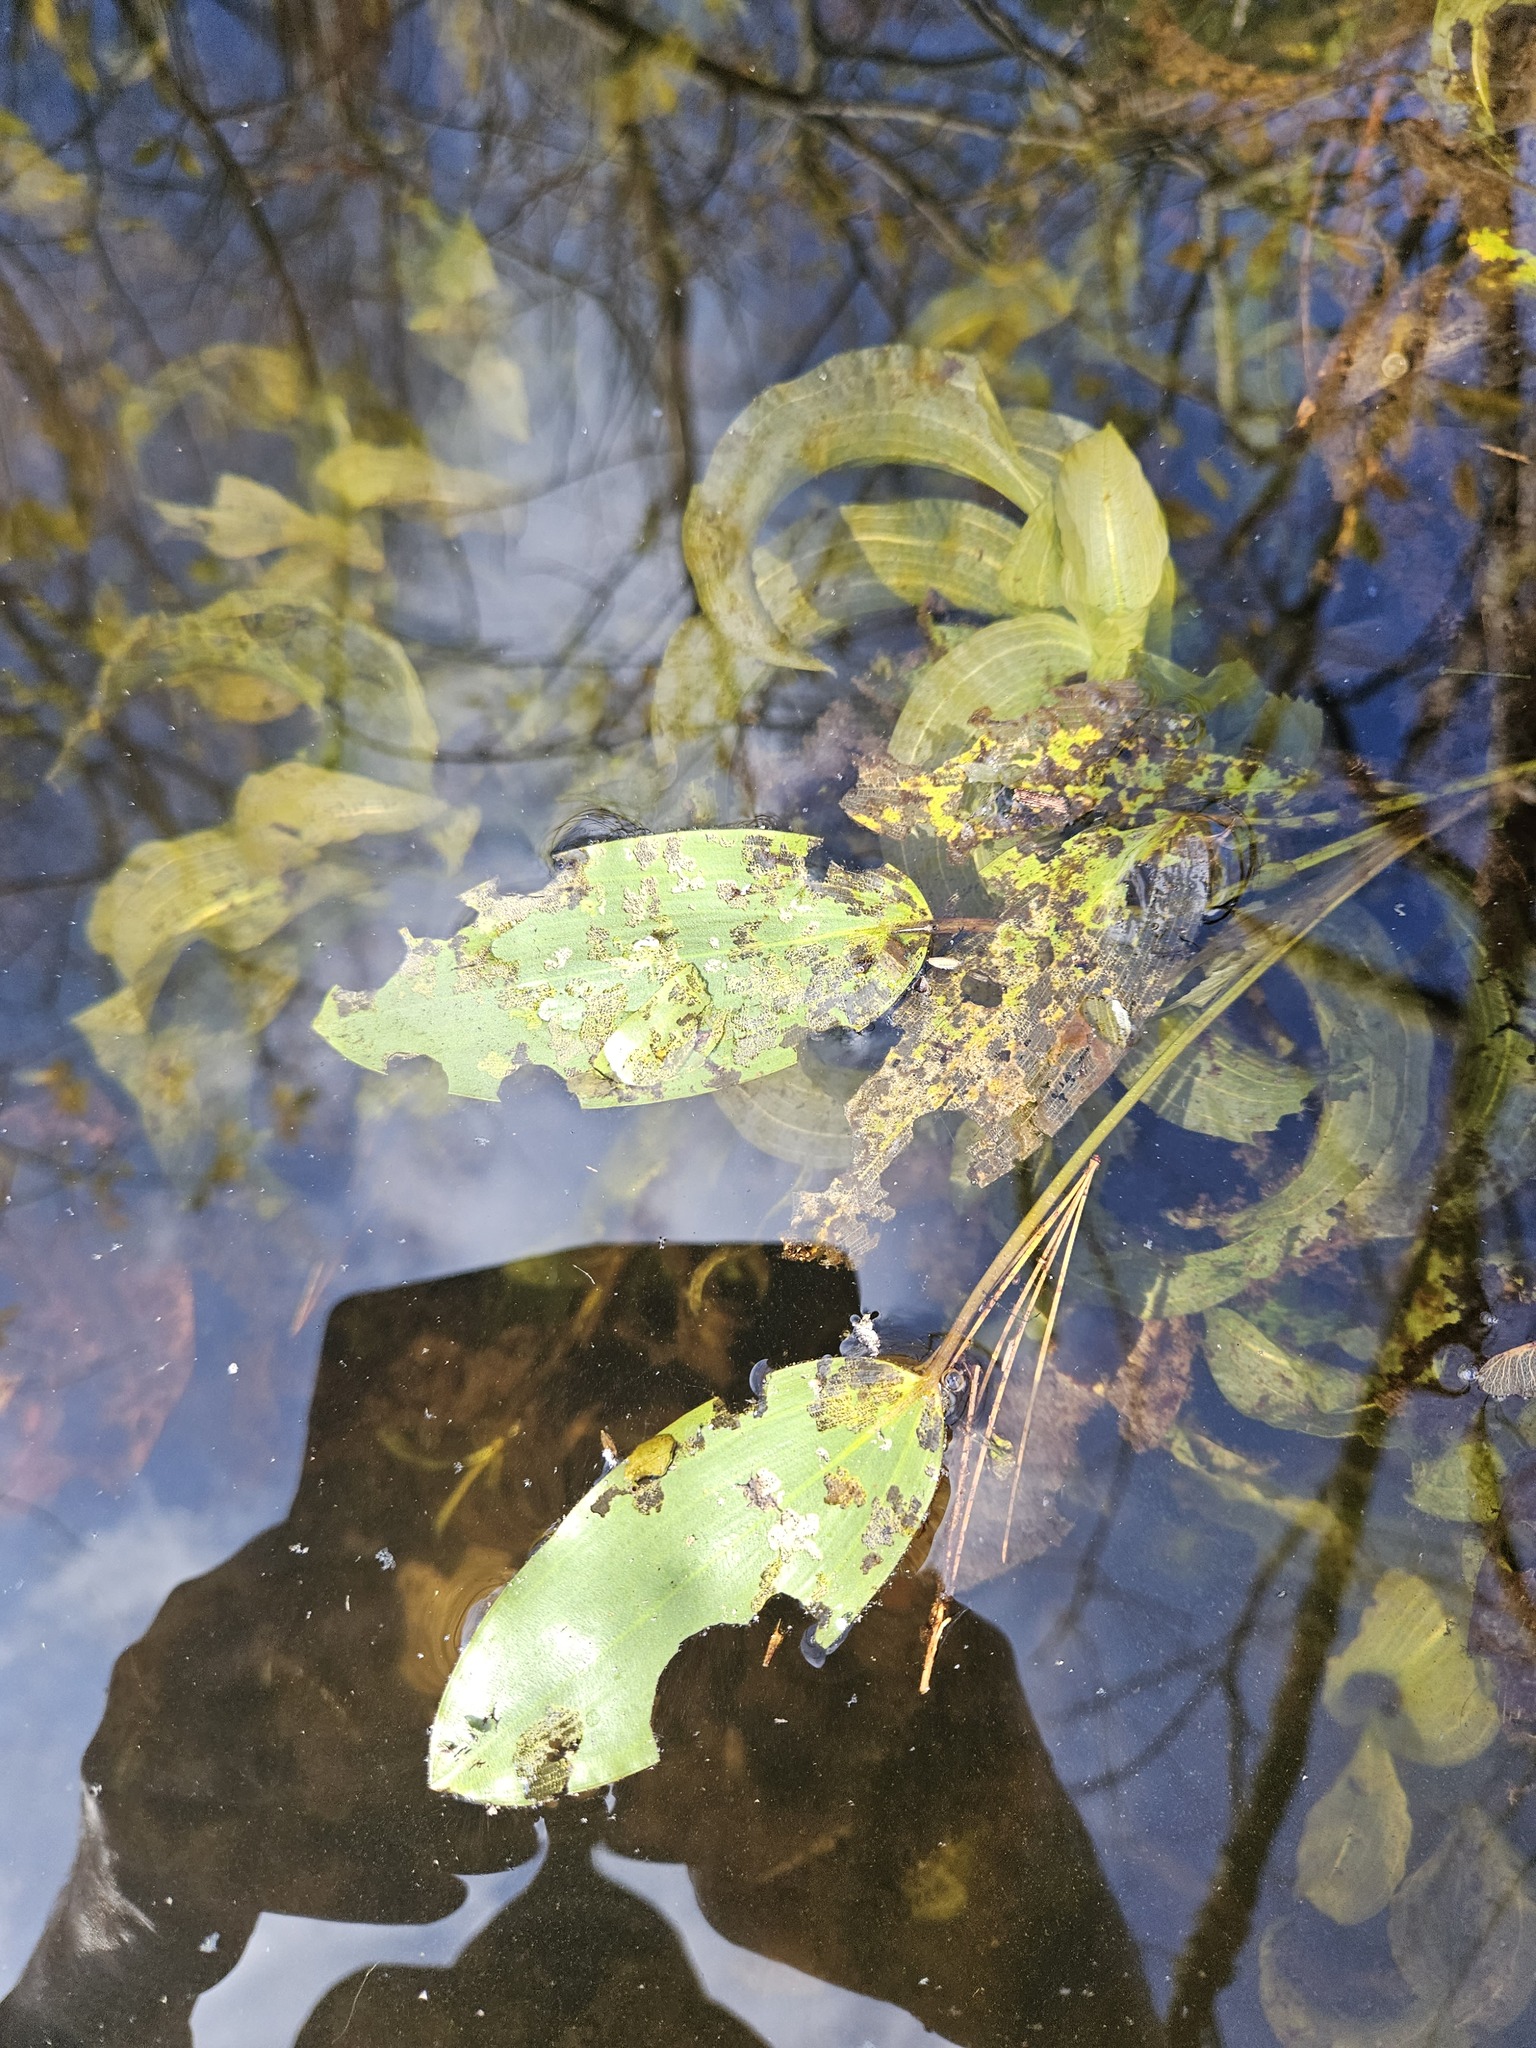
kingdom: Plantae
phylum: Tracheophyta
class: Liliopsida
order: Alismatales
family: Potamogetonaceae
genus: Potamogeton
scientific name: Potamogeton amplifolius
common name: Broad-leaved pondweed
